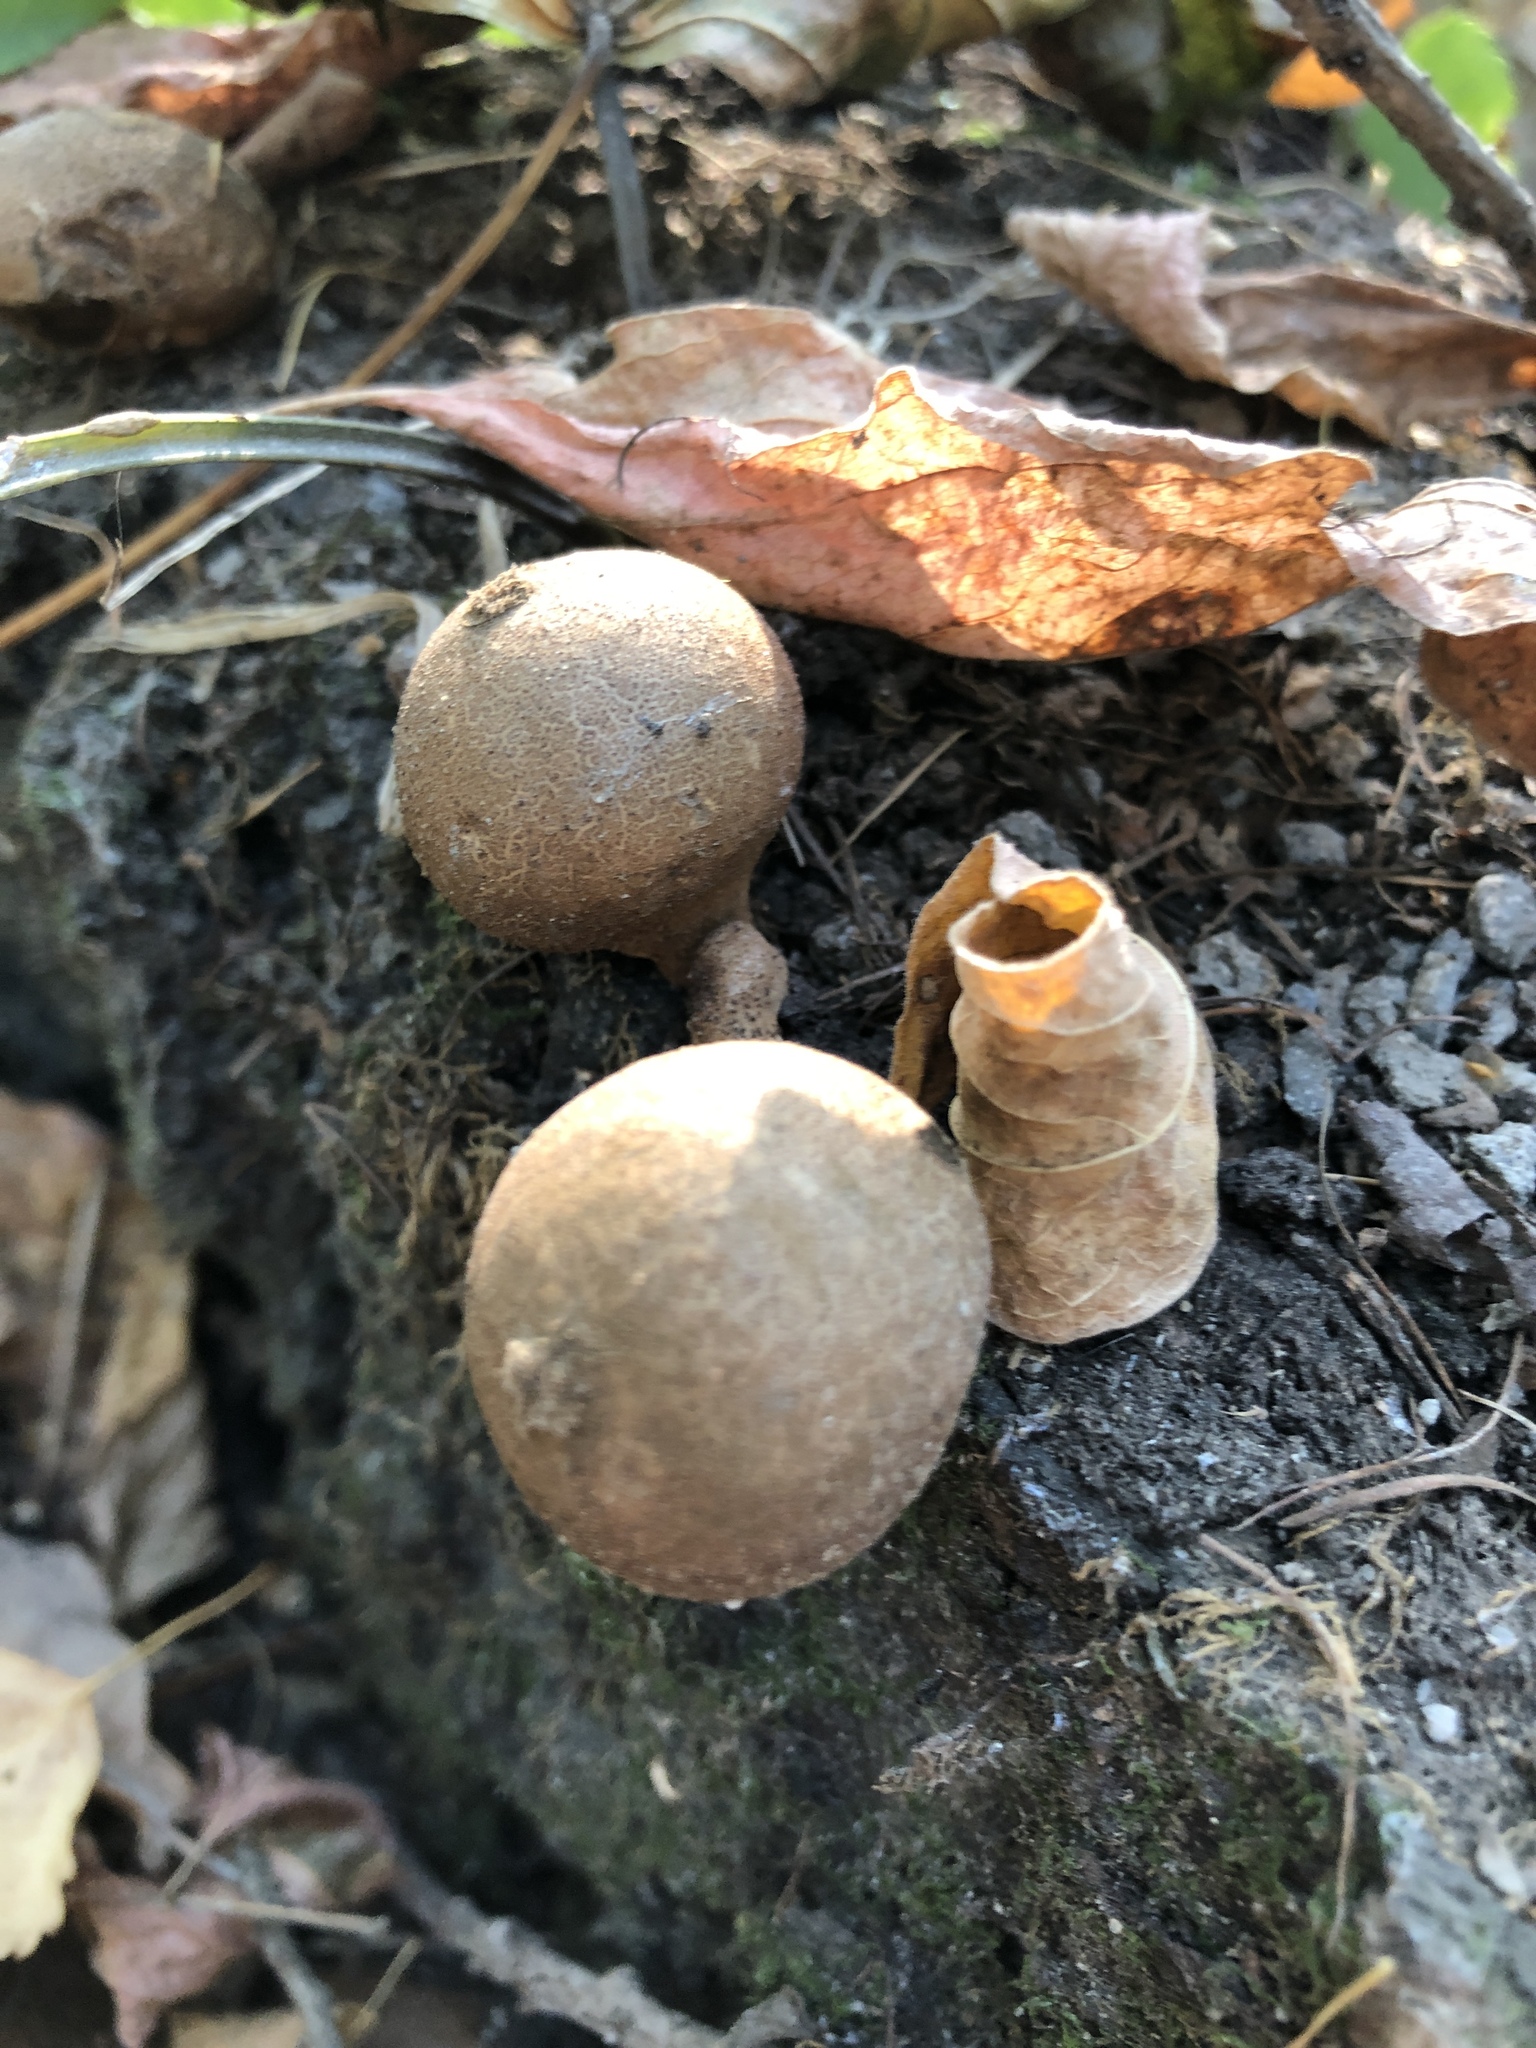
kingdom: Fungi
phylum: Basidiomycota
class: Agaricomycetes
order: Agaricales
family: Lycoperdaceae
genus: Apioperdon
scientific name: Apioperdon pyriforme
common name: Pear-shaped puffball
